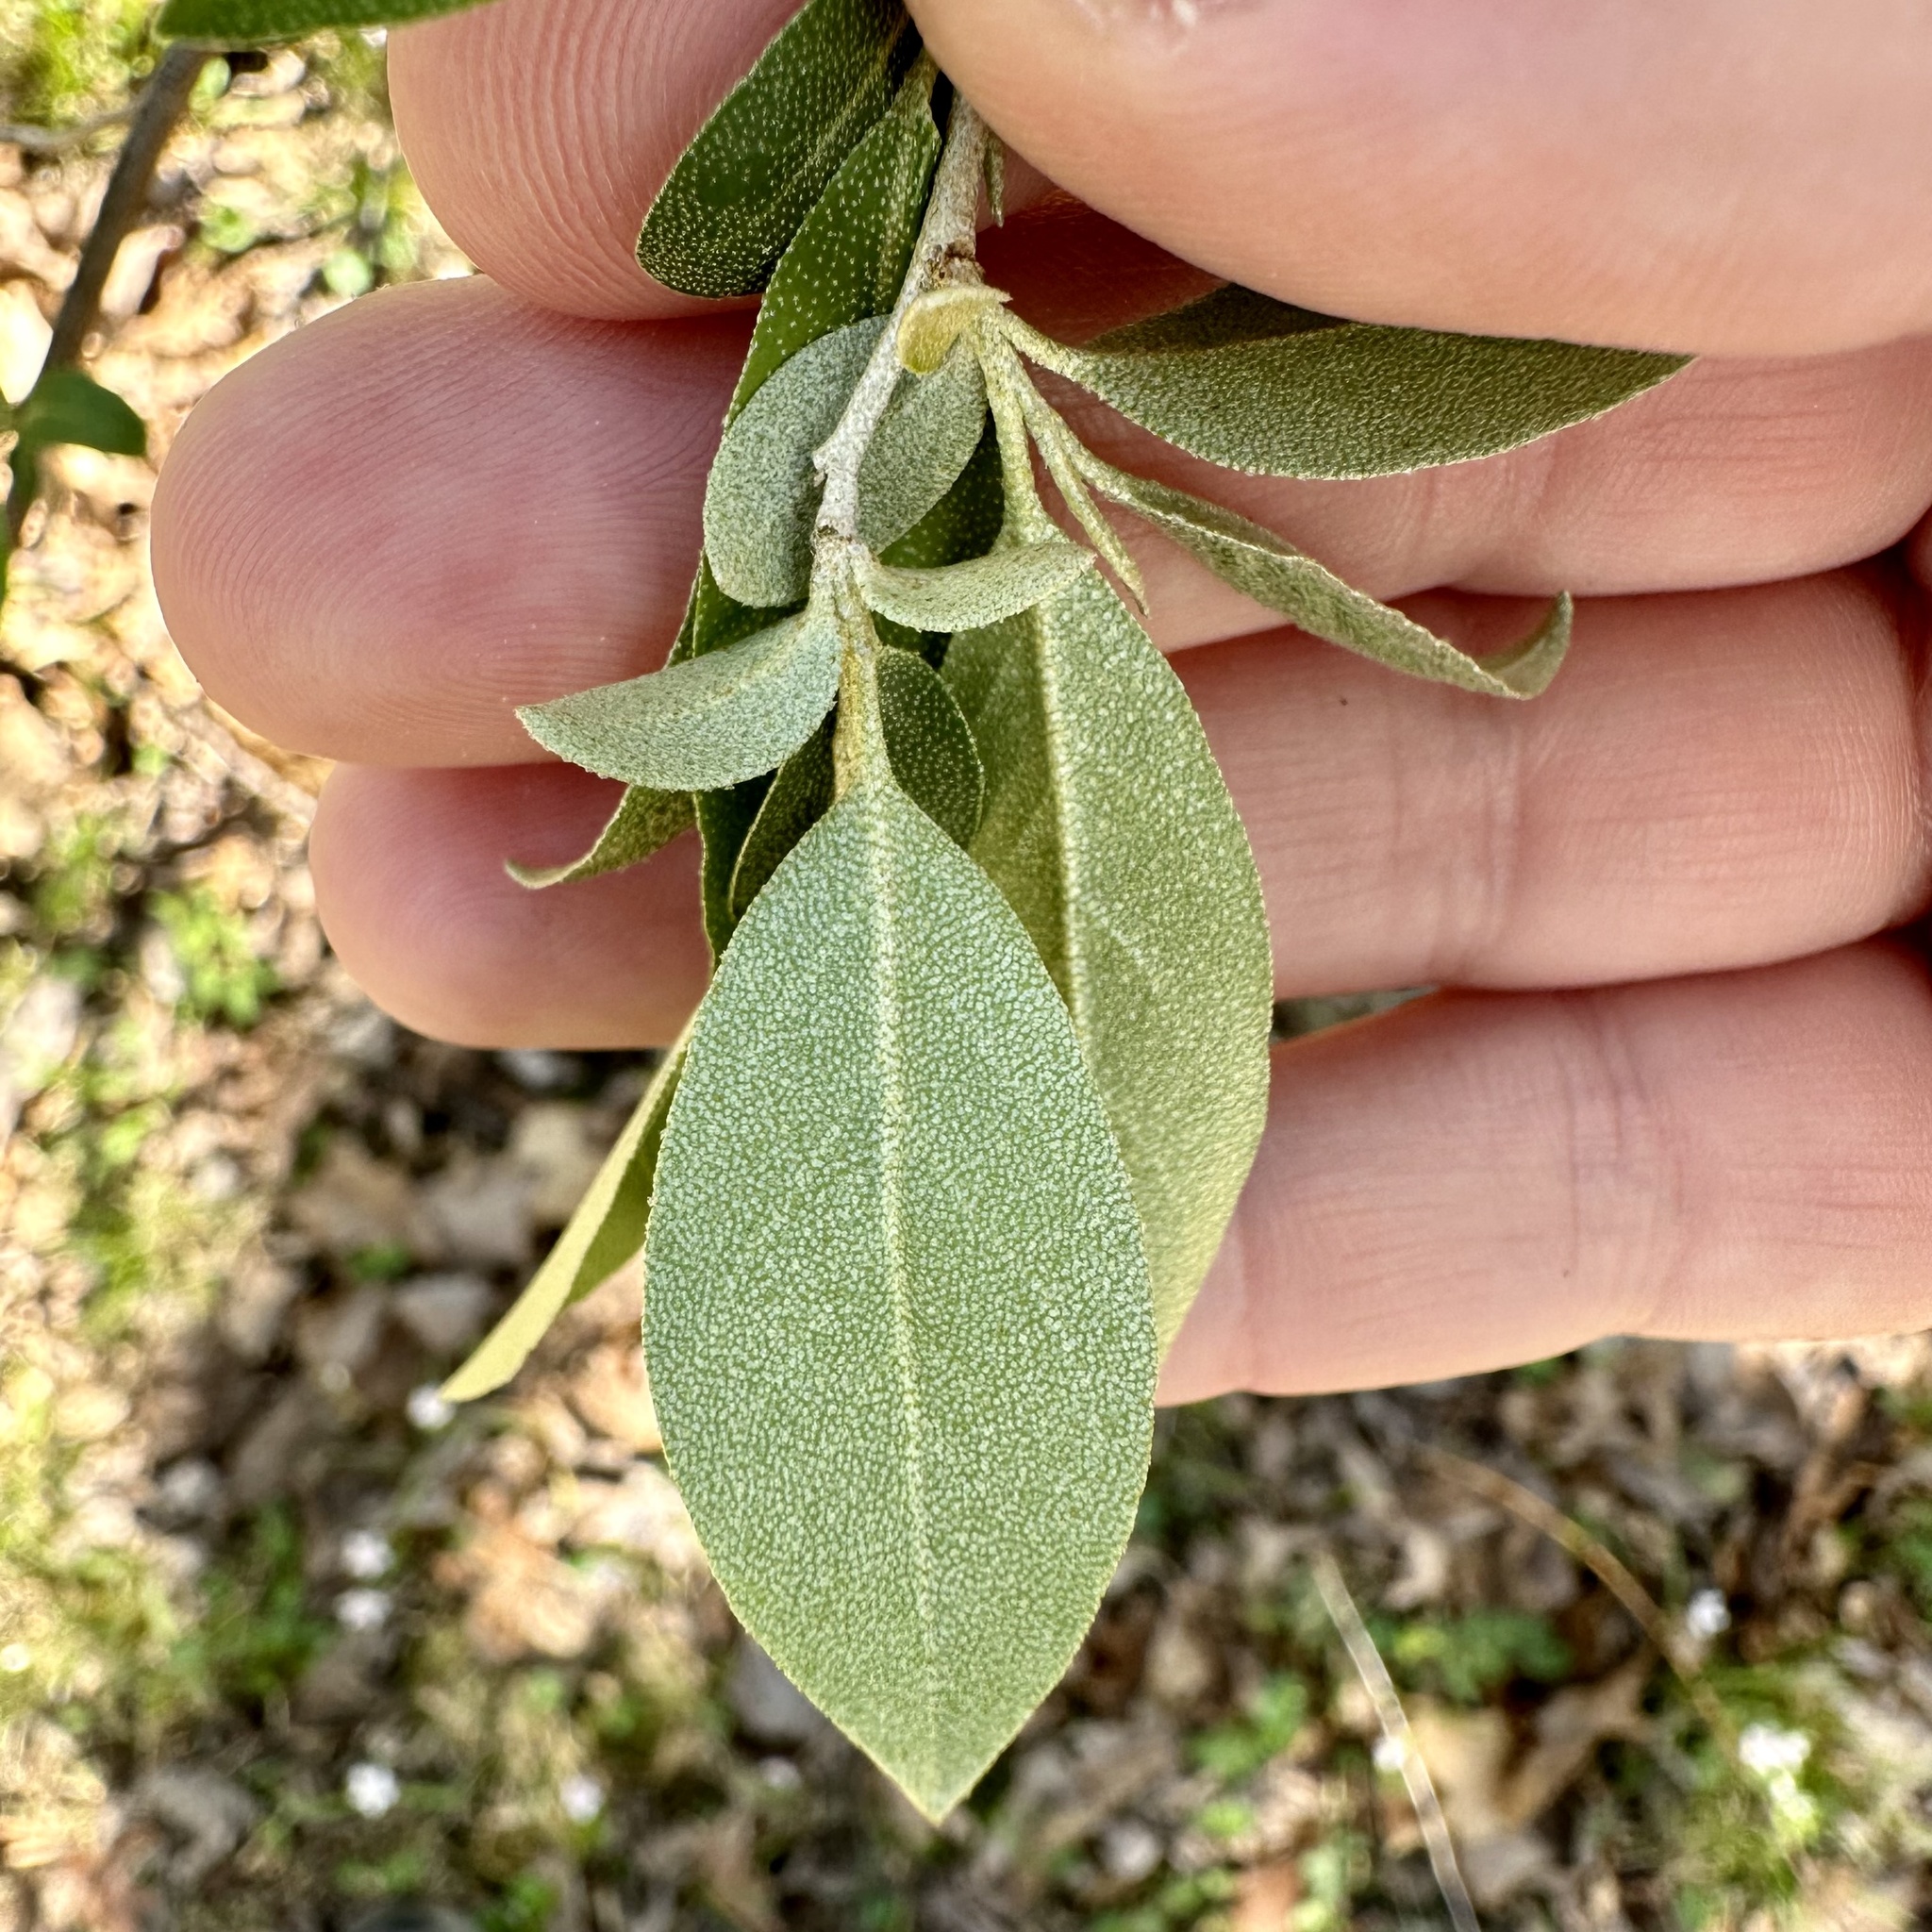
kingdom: Plantae
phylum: Tracheophyta
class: Magnoliopsida
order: Rosales
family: Elaeagnaceae
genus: Elaeagnus
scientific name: Elaeagnus umbellata
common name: Autumn olive
